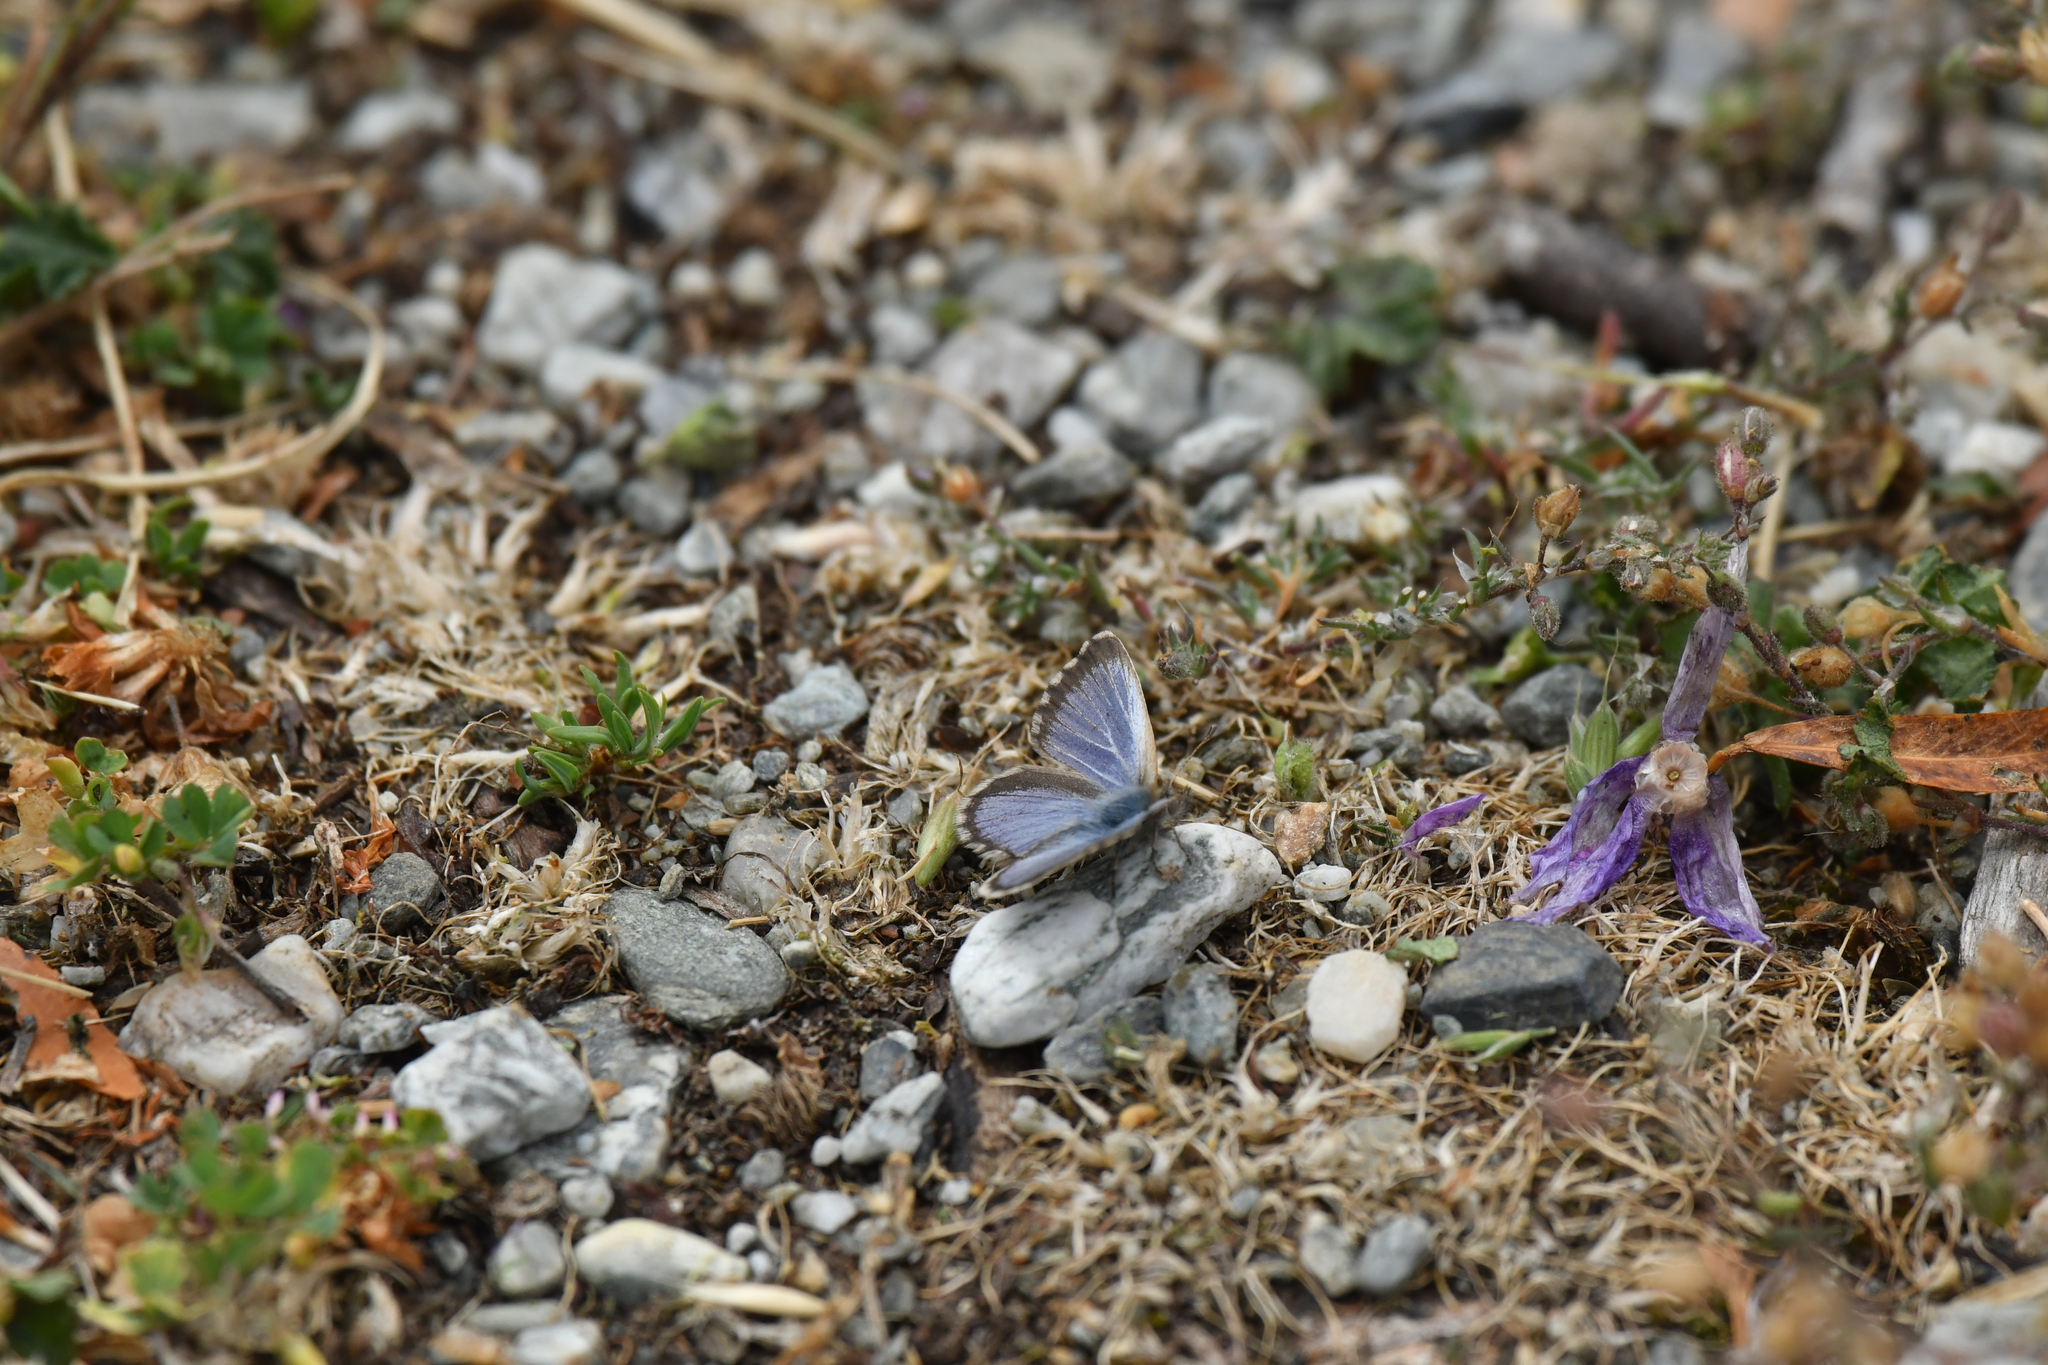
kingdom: Animalia
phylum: Arthropoda
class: Insecta
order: Lepidoptera
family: Lycaenidae
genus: Zizina
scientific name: Zizina oxleyi
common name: Southern blue
